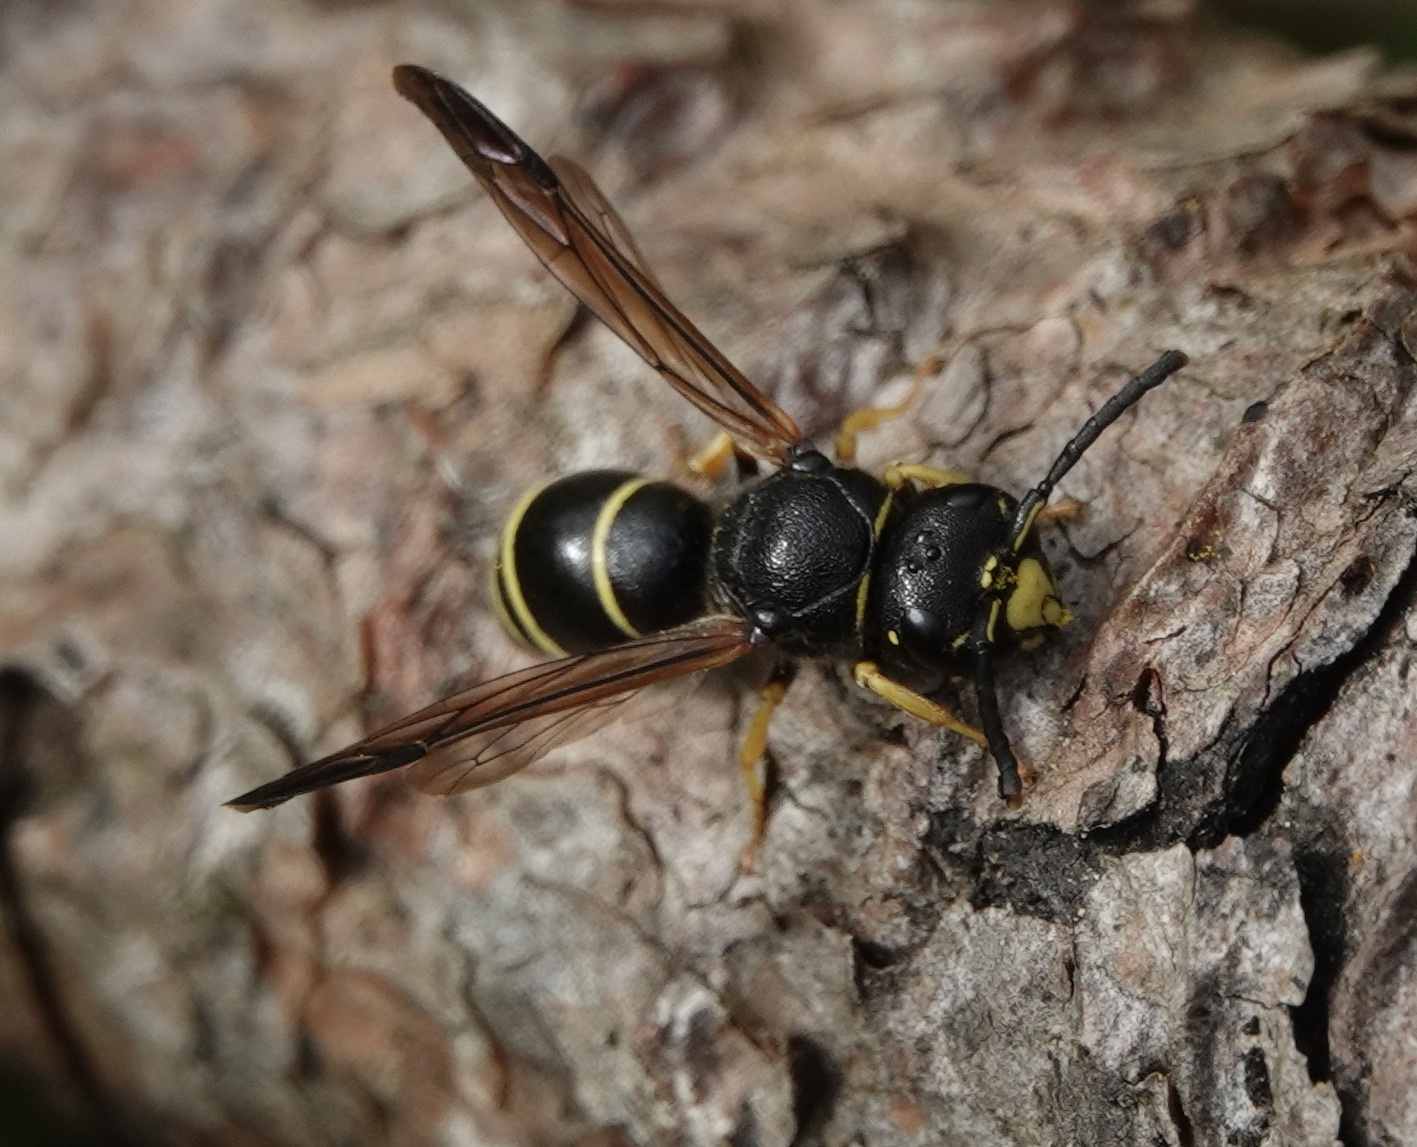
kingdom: Animalia
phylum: Arthropoda
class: Insecta
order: Hymenoptera
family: Vespidae
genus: Odynerus
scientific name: Odynerus spinipes
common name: Spiny mason wasp
